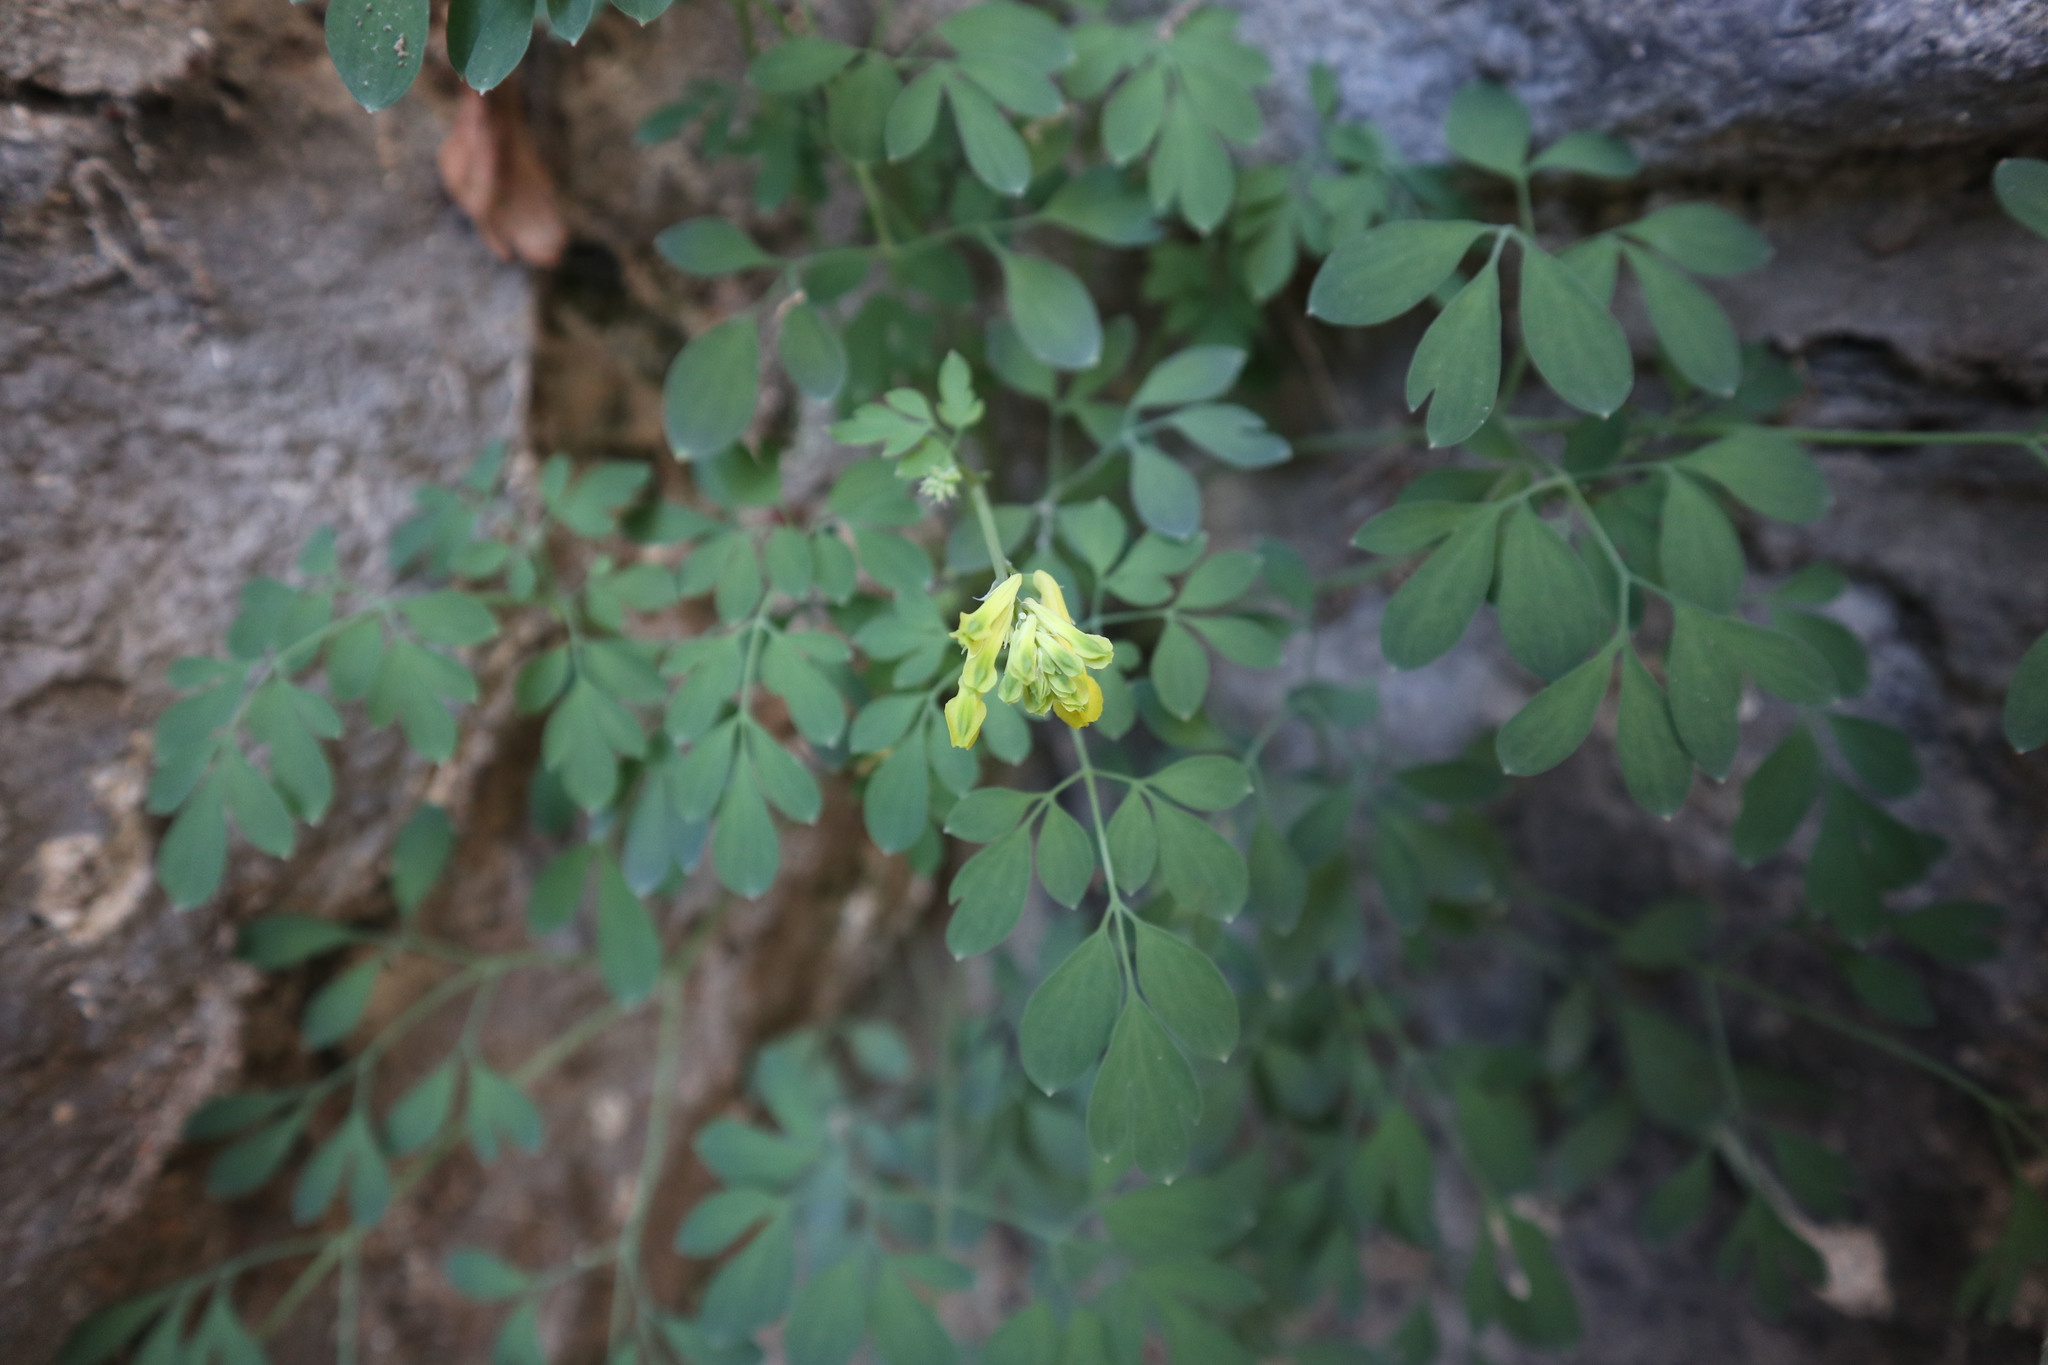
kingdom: Plantae
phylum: Tracheophyta
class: Magnoliopsida
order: Ranunculales
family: Papaveraceae
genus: Pseudofumaria
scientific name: Pseudofumaria lutea
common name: Yellow corydalis
